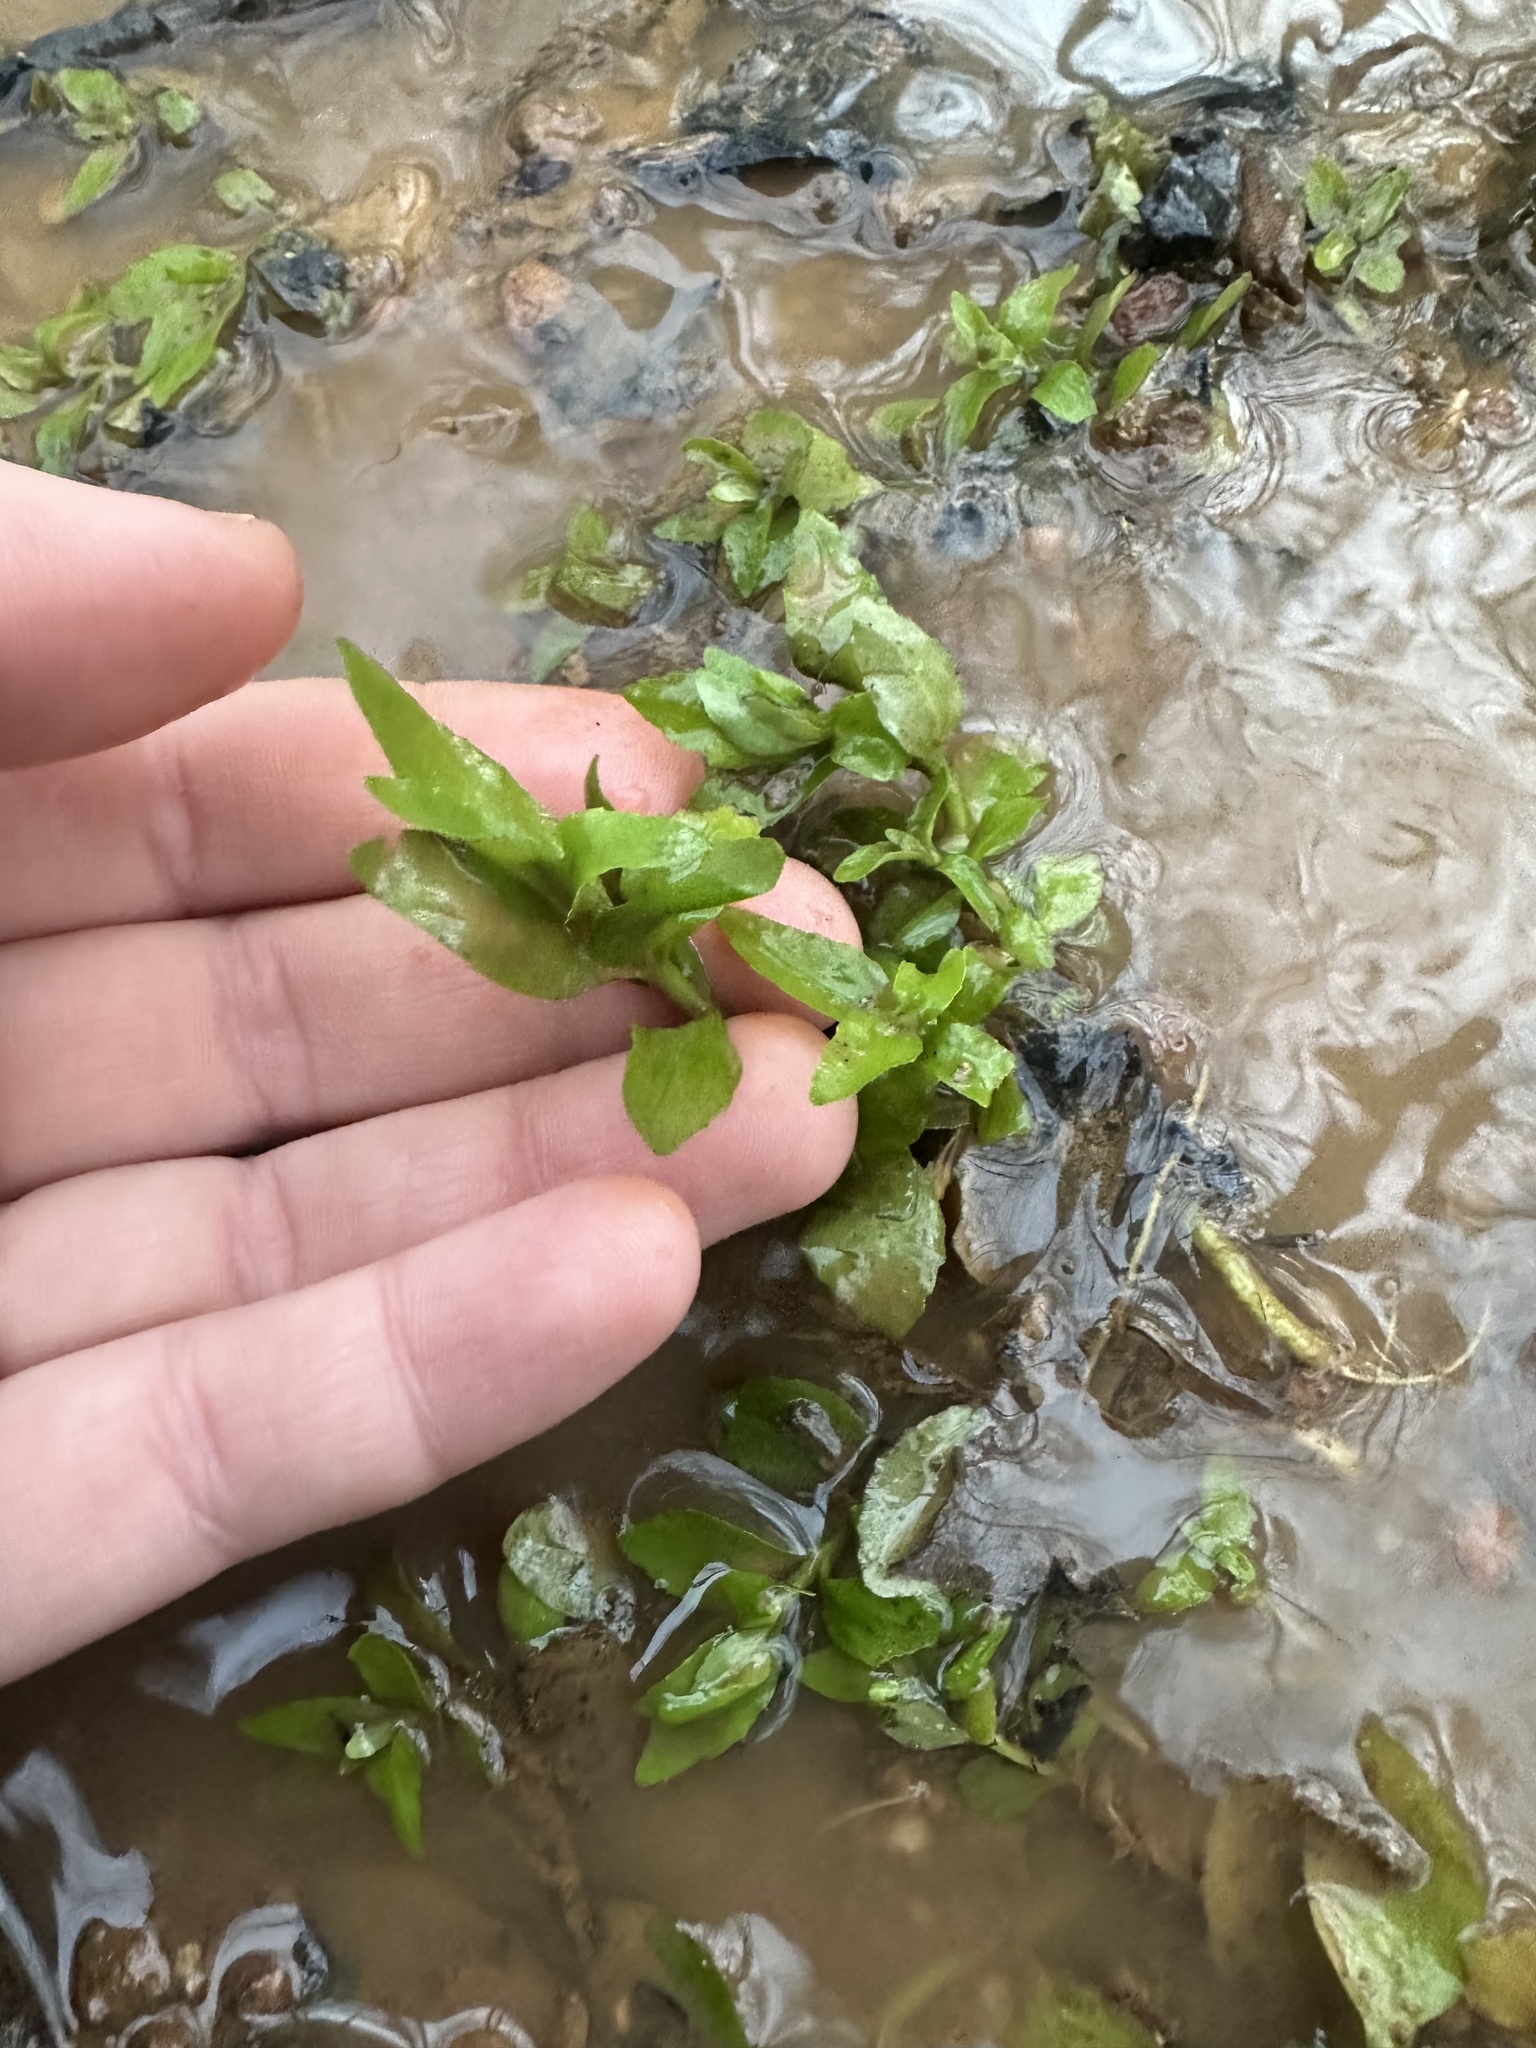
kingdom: Plantae
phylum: Tracheophyta
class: Magnoliopsida
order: Lamiales
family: Plantaginaceae
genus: Gratiola
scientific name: Gratiola virginiana
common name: Roundfruit hedgehyssop
